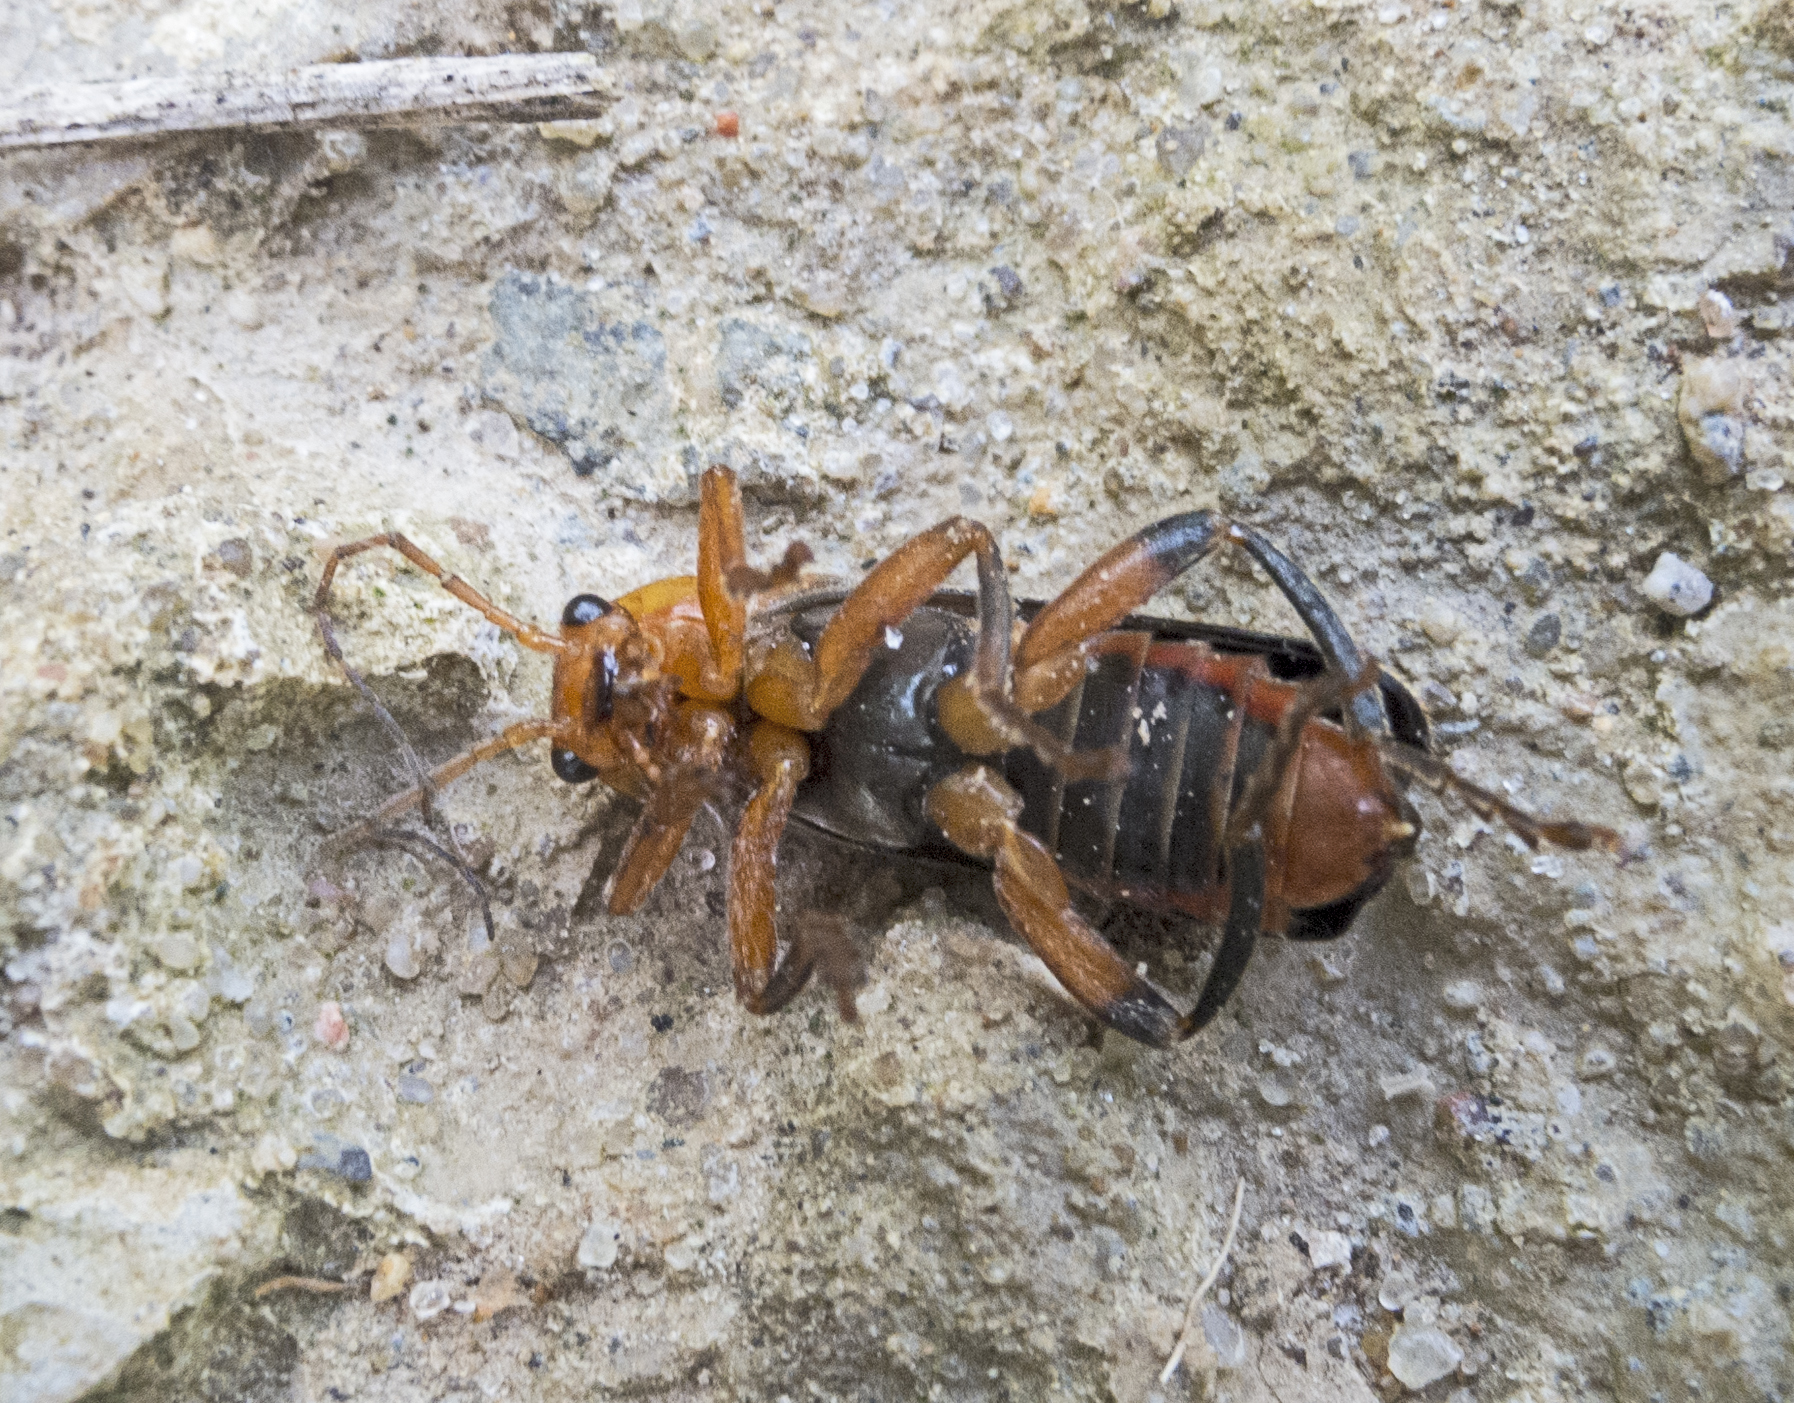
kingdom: Animalia
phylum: Arthropoda
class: Insecta
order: Coleoptera
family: Cantharidae
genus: Cantharis
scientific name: Cantharis livida
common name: Livid soldier beetle
